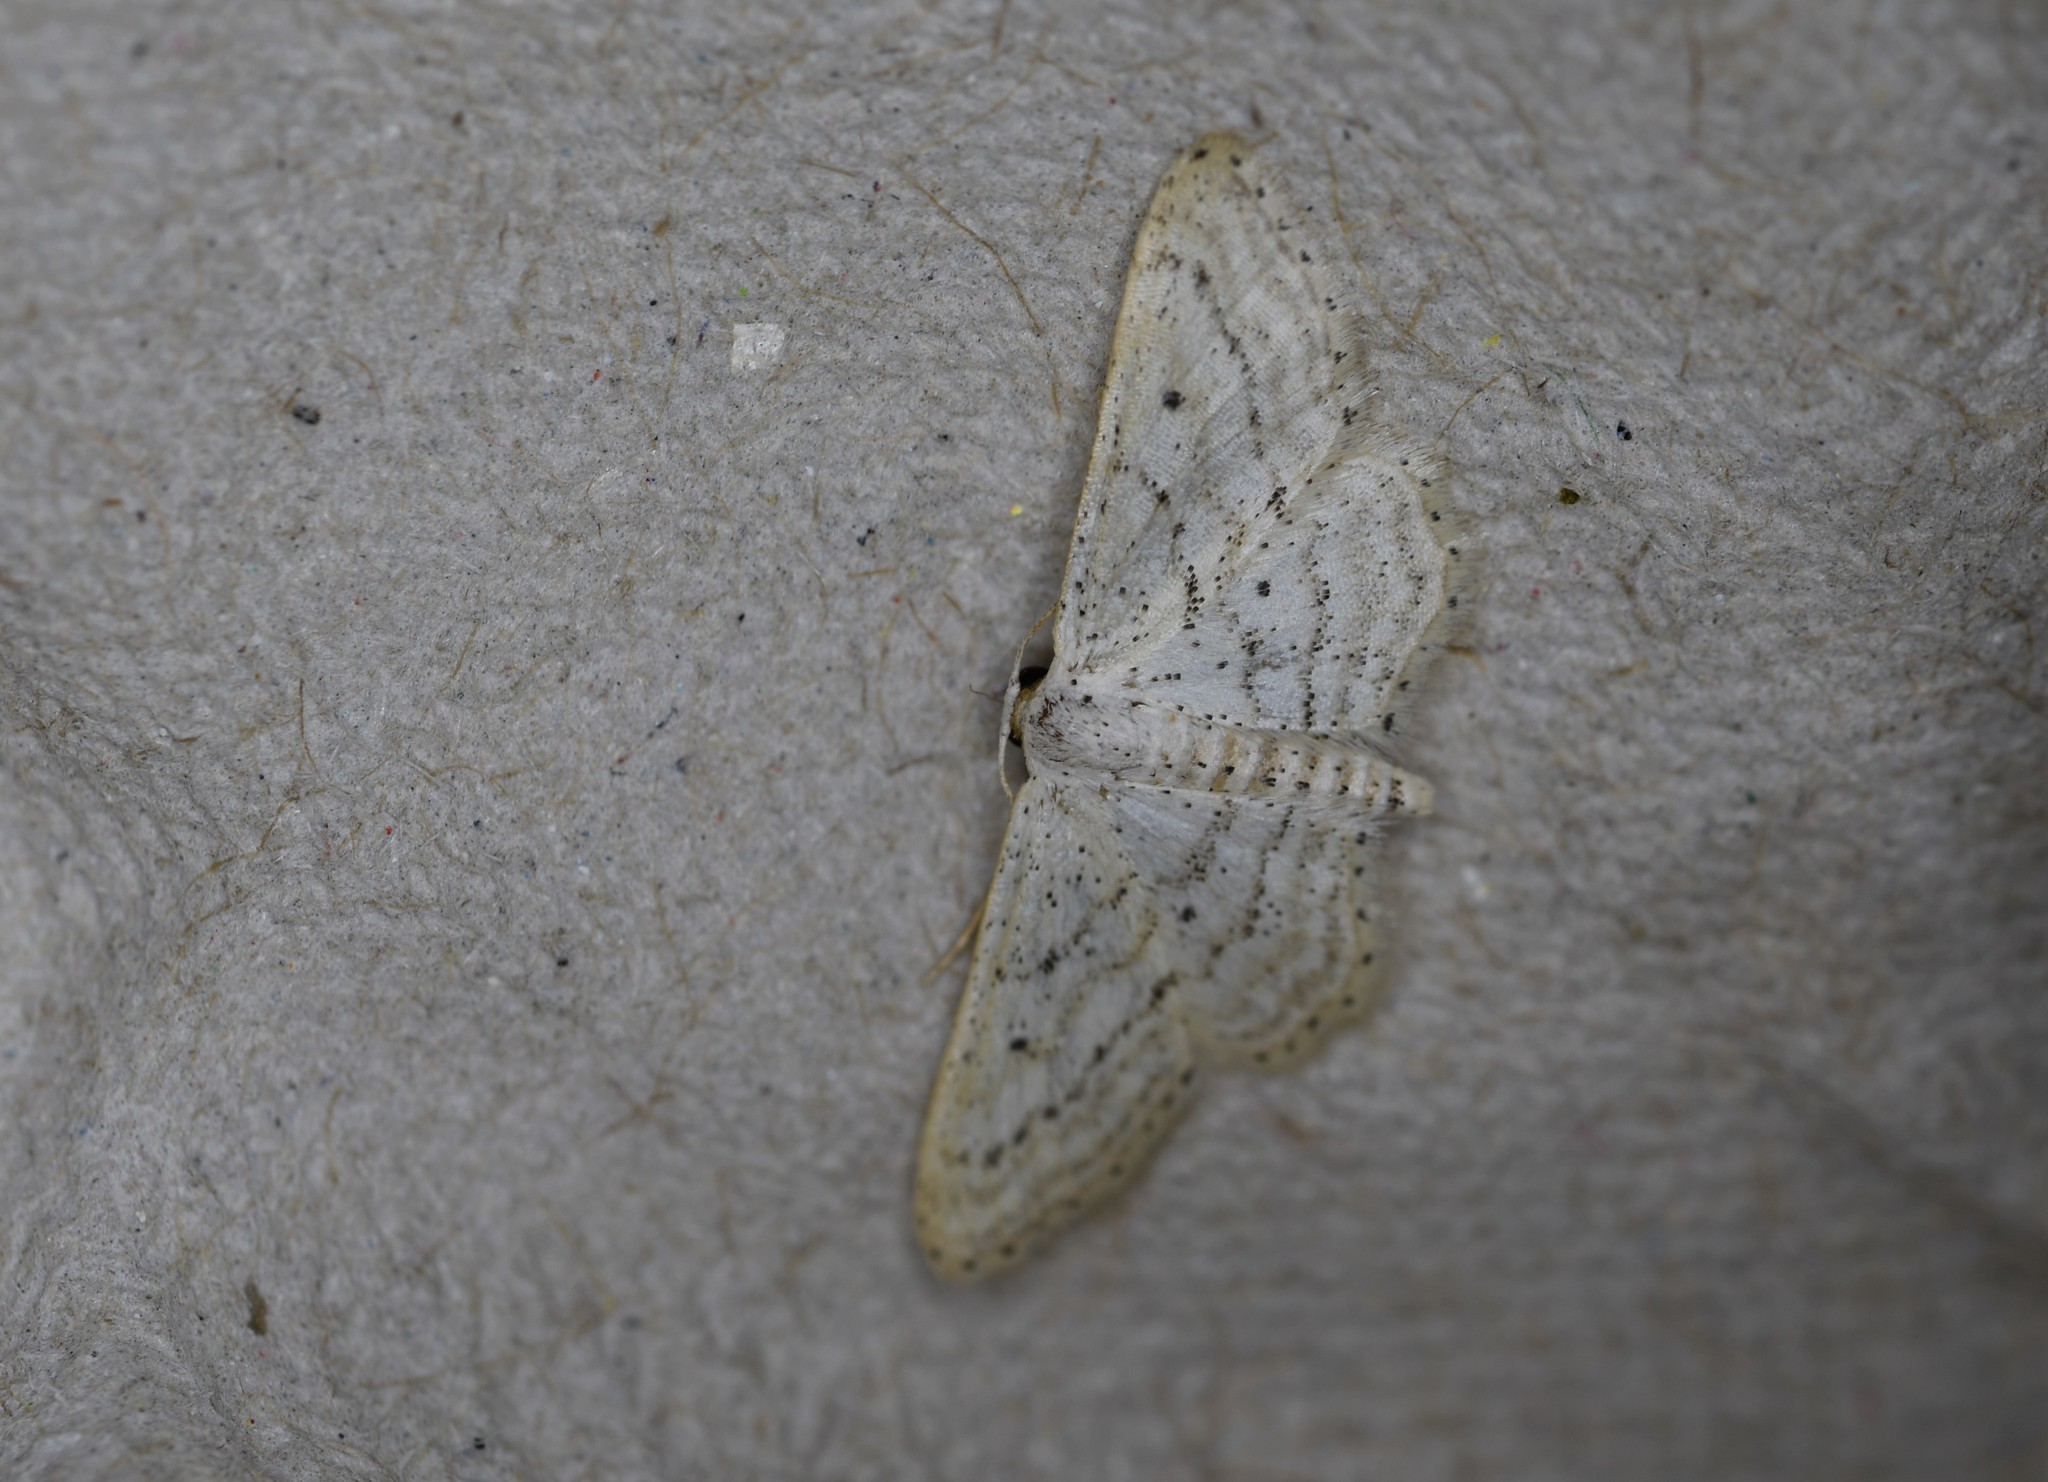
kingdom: Animalia
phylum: Arthropoda
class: Insecta
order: Lepidoptera
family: Geometridae
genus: Idaea
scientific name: Idaea elongaria
